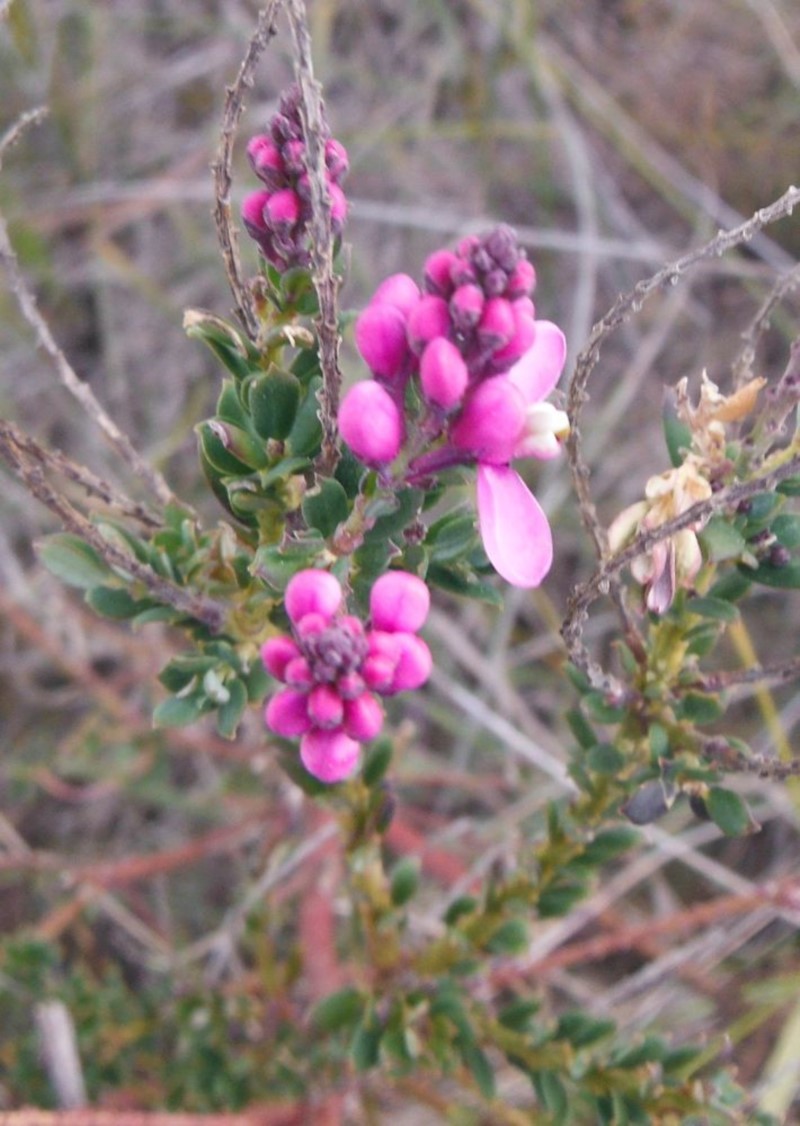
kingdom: Plantae
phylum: Tracheophyta
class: Magnoliopsida
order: Fabales
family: Polygalaceae
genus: Comesperma
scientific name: Comesperma ericinum
